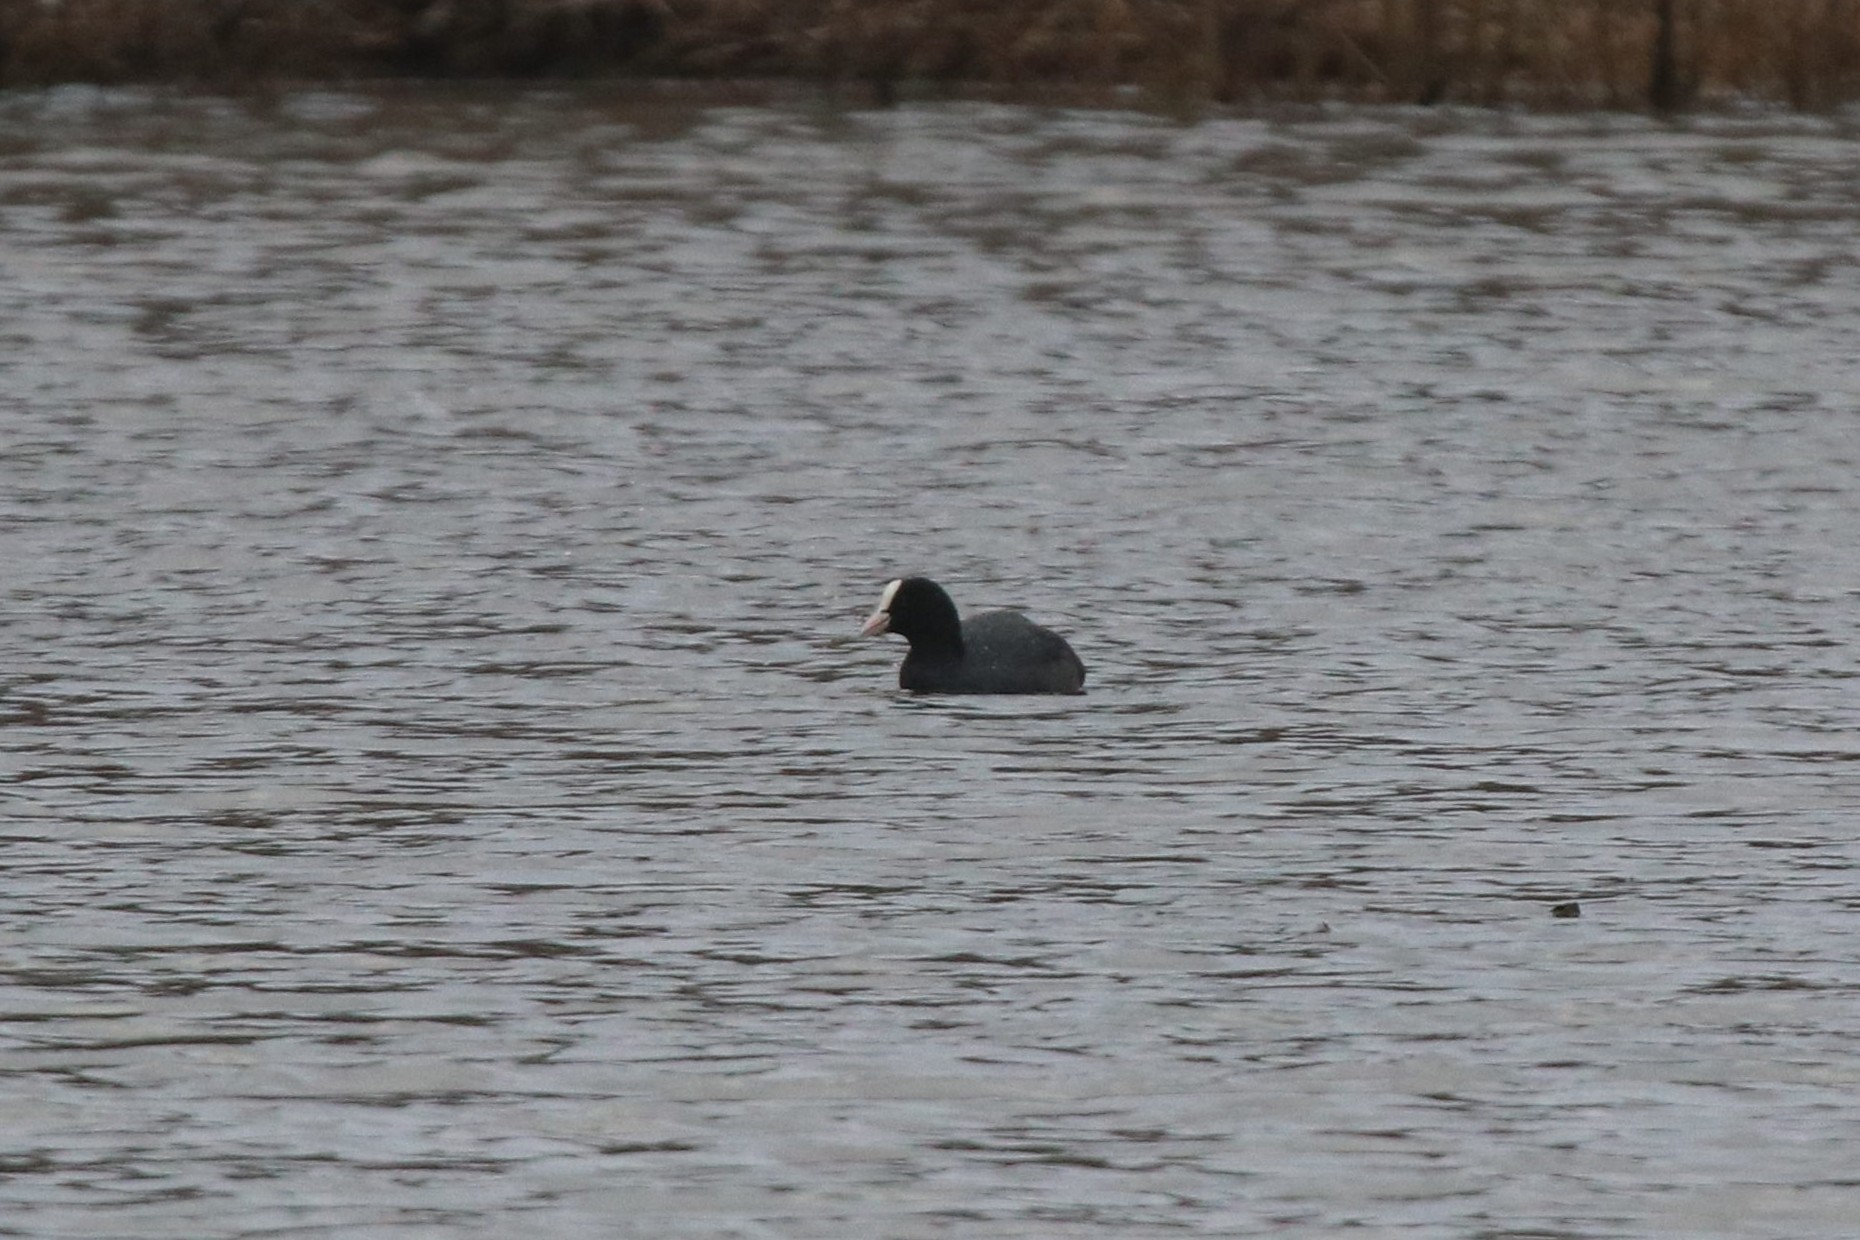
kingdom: Animalia
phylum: Chordata
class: Aves
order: Gruiformes
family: Rallidae
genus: Fulica
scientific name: Fulica atra
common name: Eurasian coot
